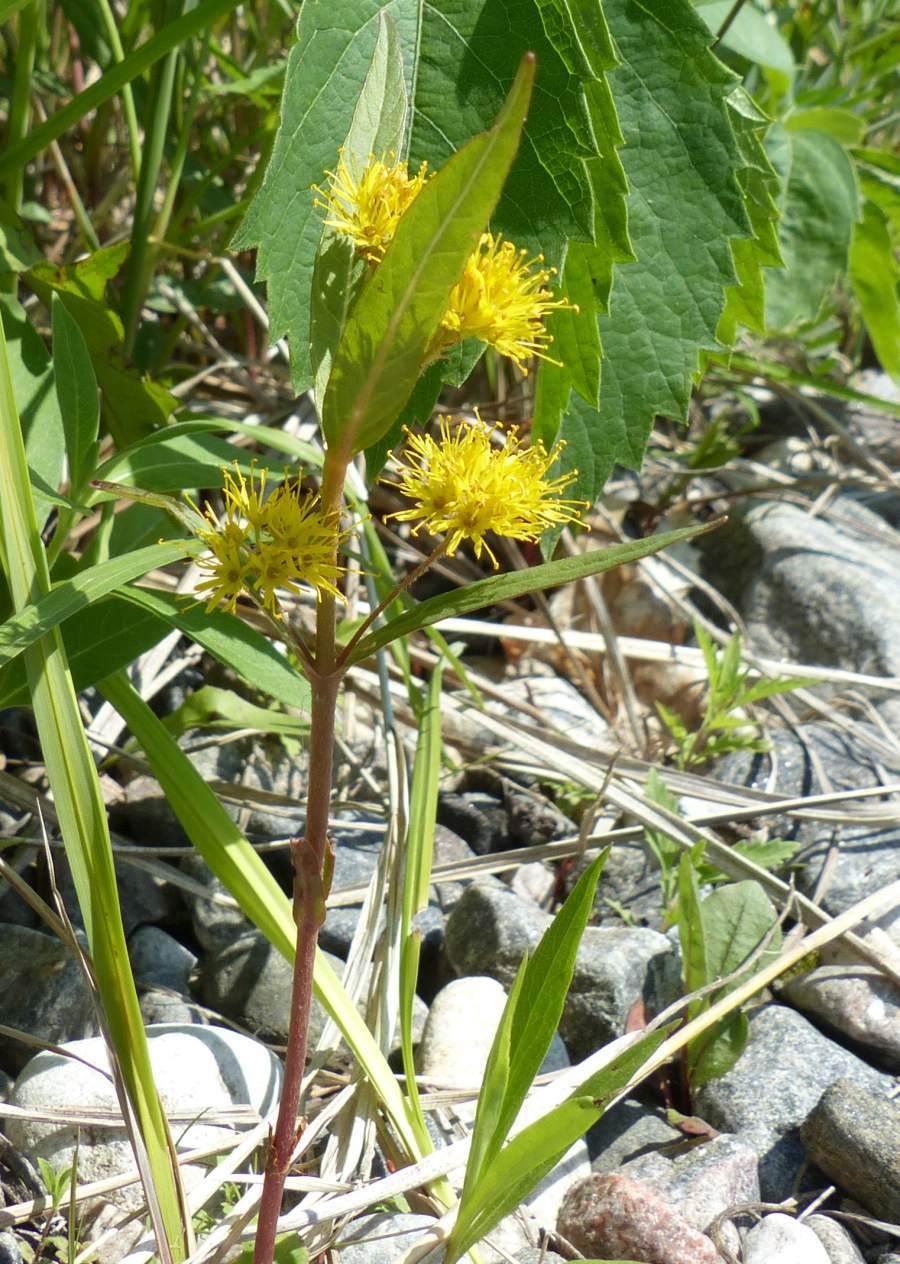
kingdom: Plantae
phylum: Tracheophyta
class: Magnoliopsida
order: Ericales
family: Primulaceae
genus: Lysimachia
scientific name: Lysimachia thyrsiflora
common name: Tufted loosestrife
